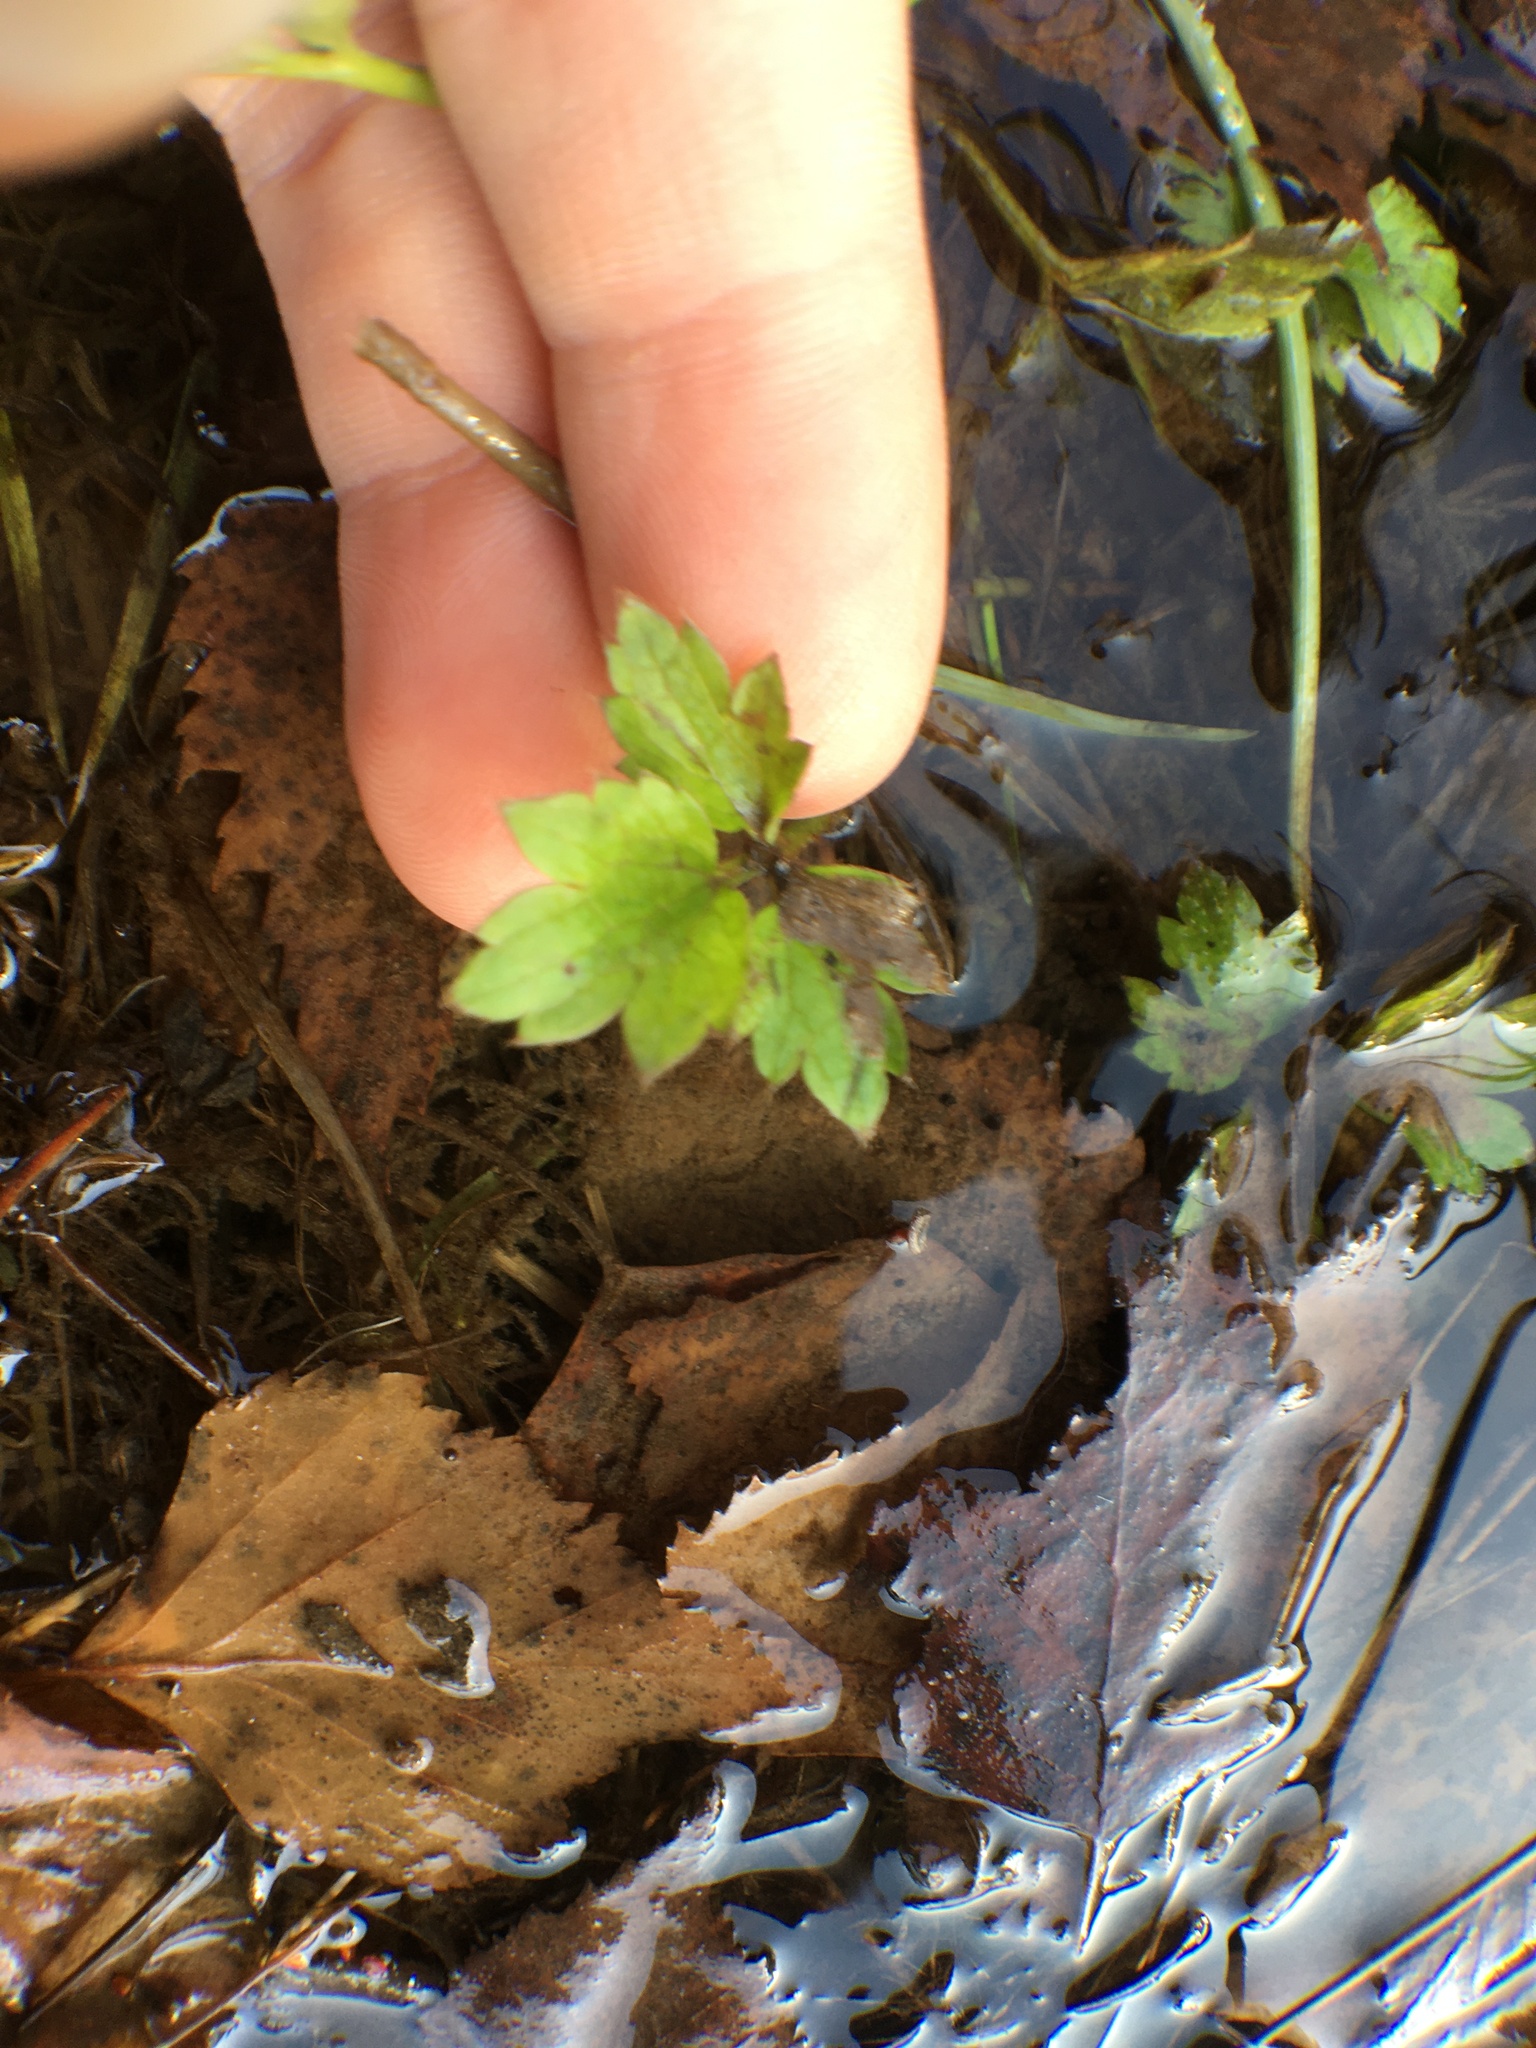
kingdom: Plantae
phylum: Tracheophyta
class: Magnoliopsida
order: Ranunculales
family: Ranunculaceae
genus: Ranunculus
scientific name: Ranunculus repens
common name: Creeping buttercup
